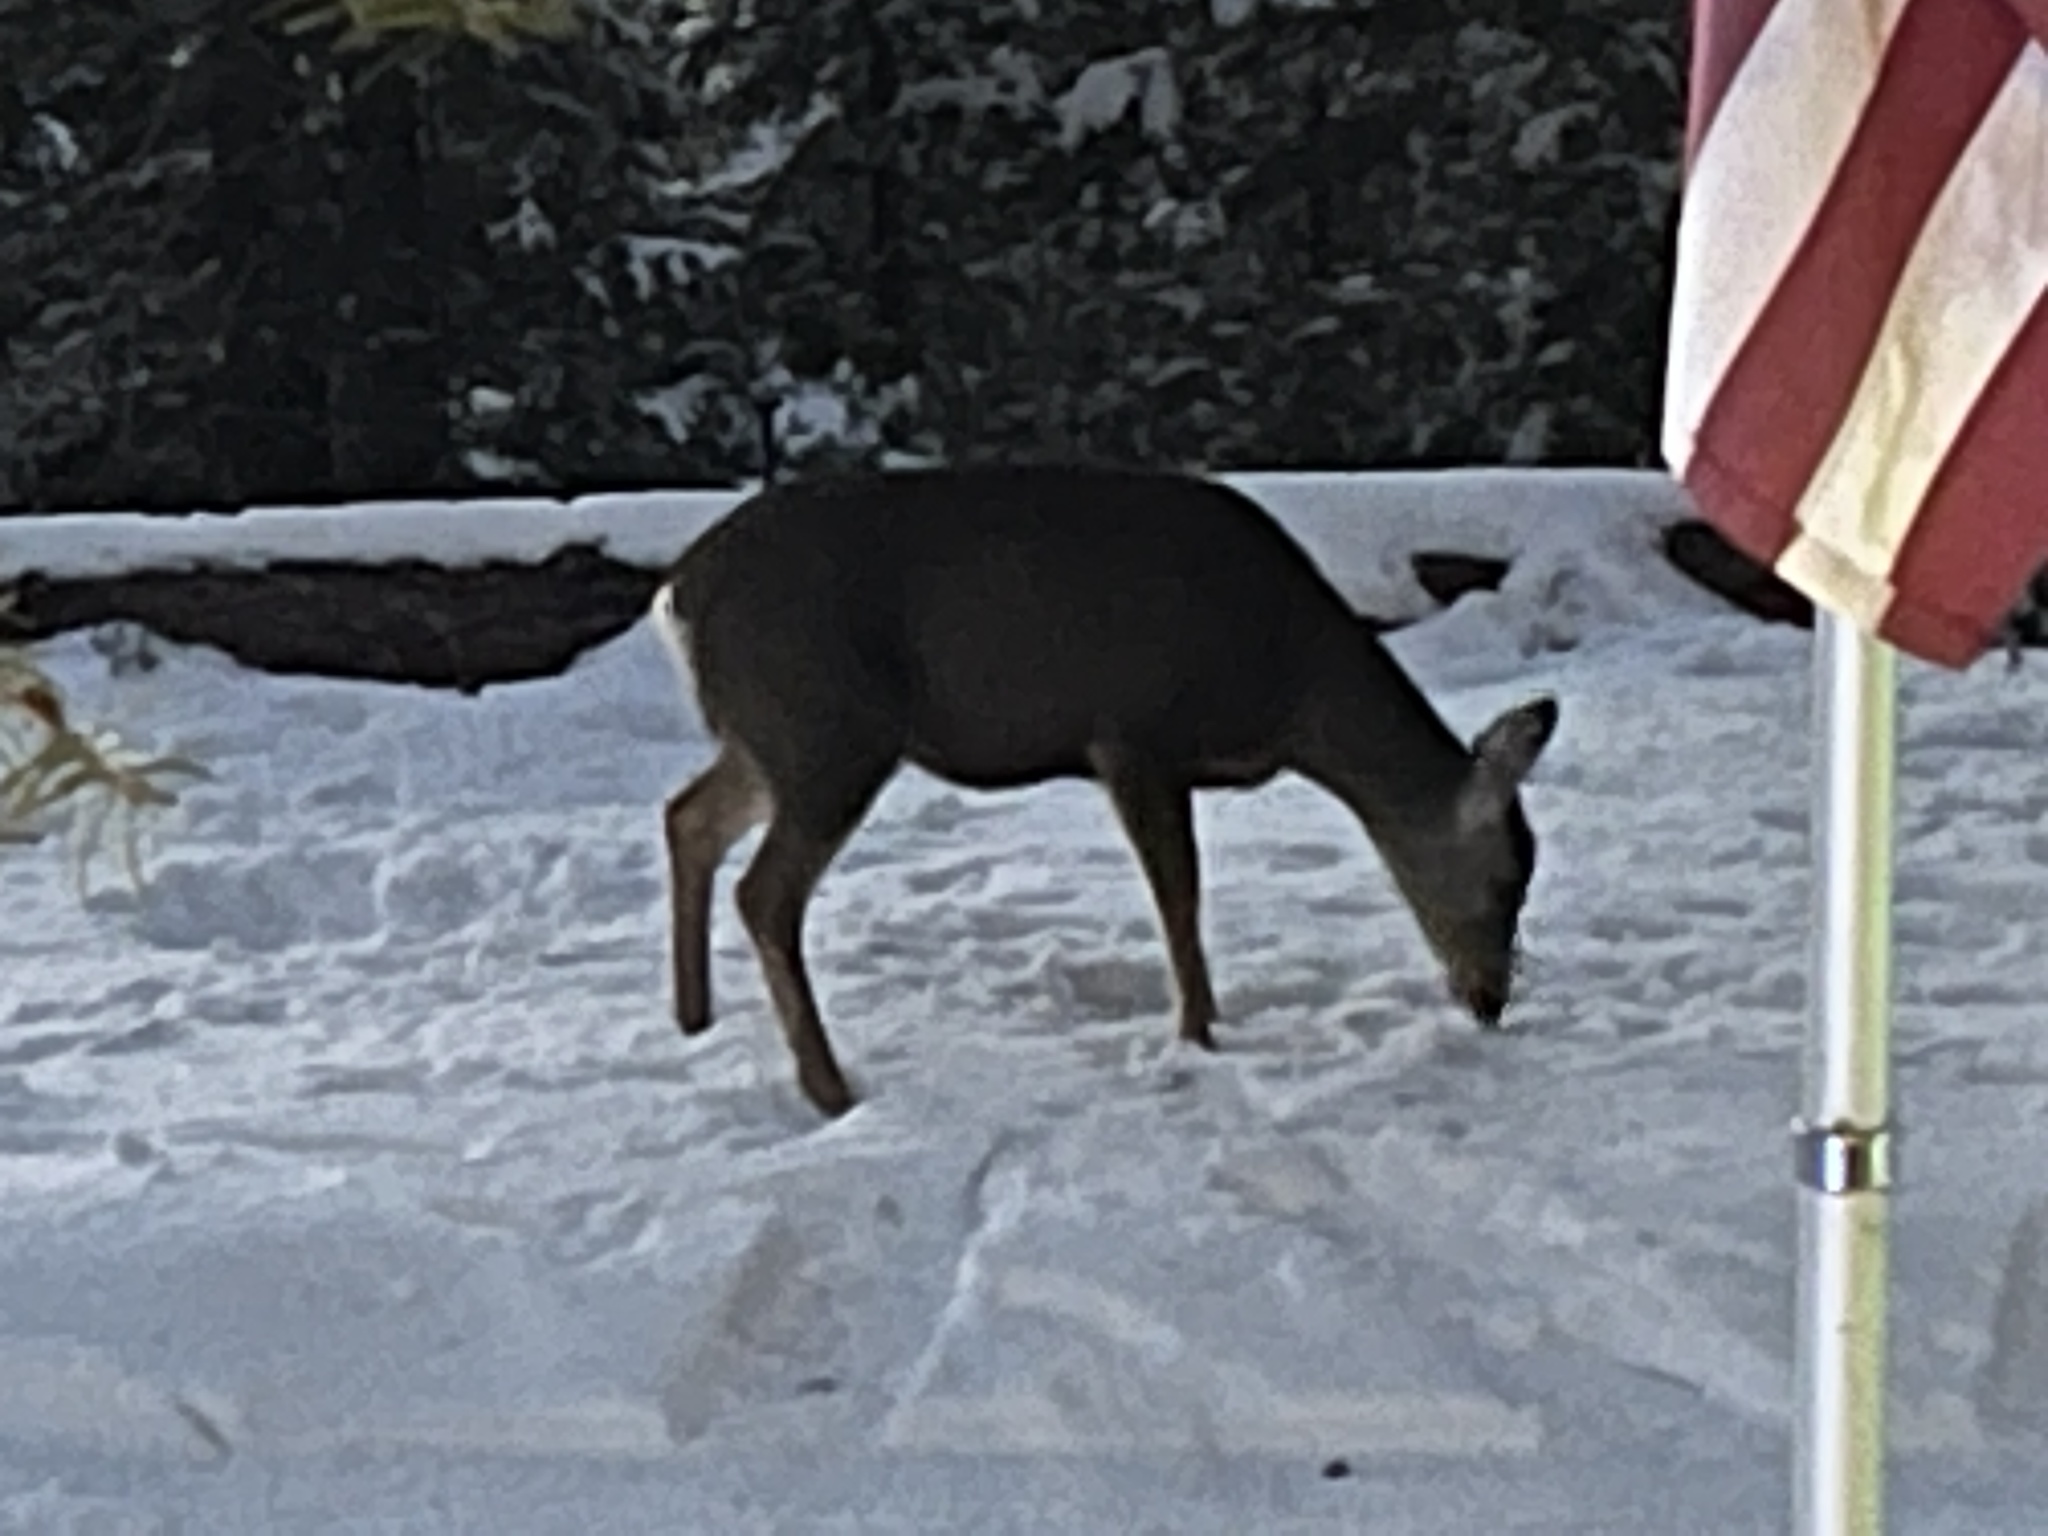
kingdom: Animalia
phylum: Chordata
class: Mammalia
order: Artiodactyla
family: Cervidae
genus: Odocoileus
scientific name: Odocoileus hemionus
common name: Mule deer
